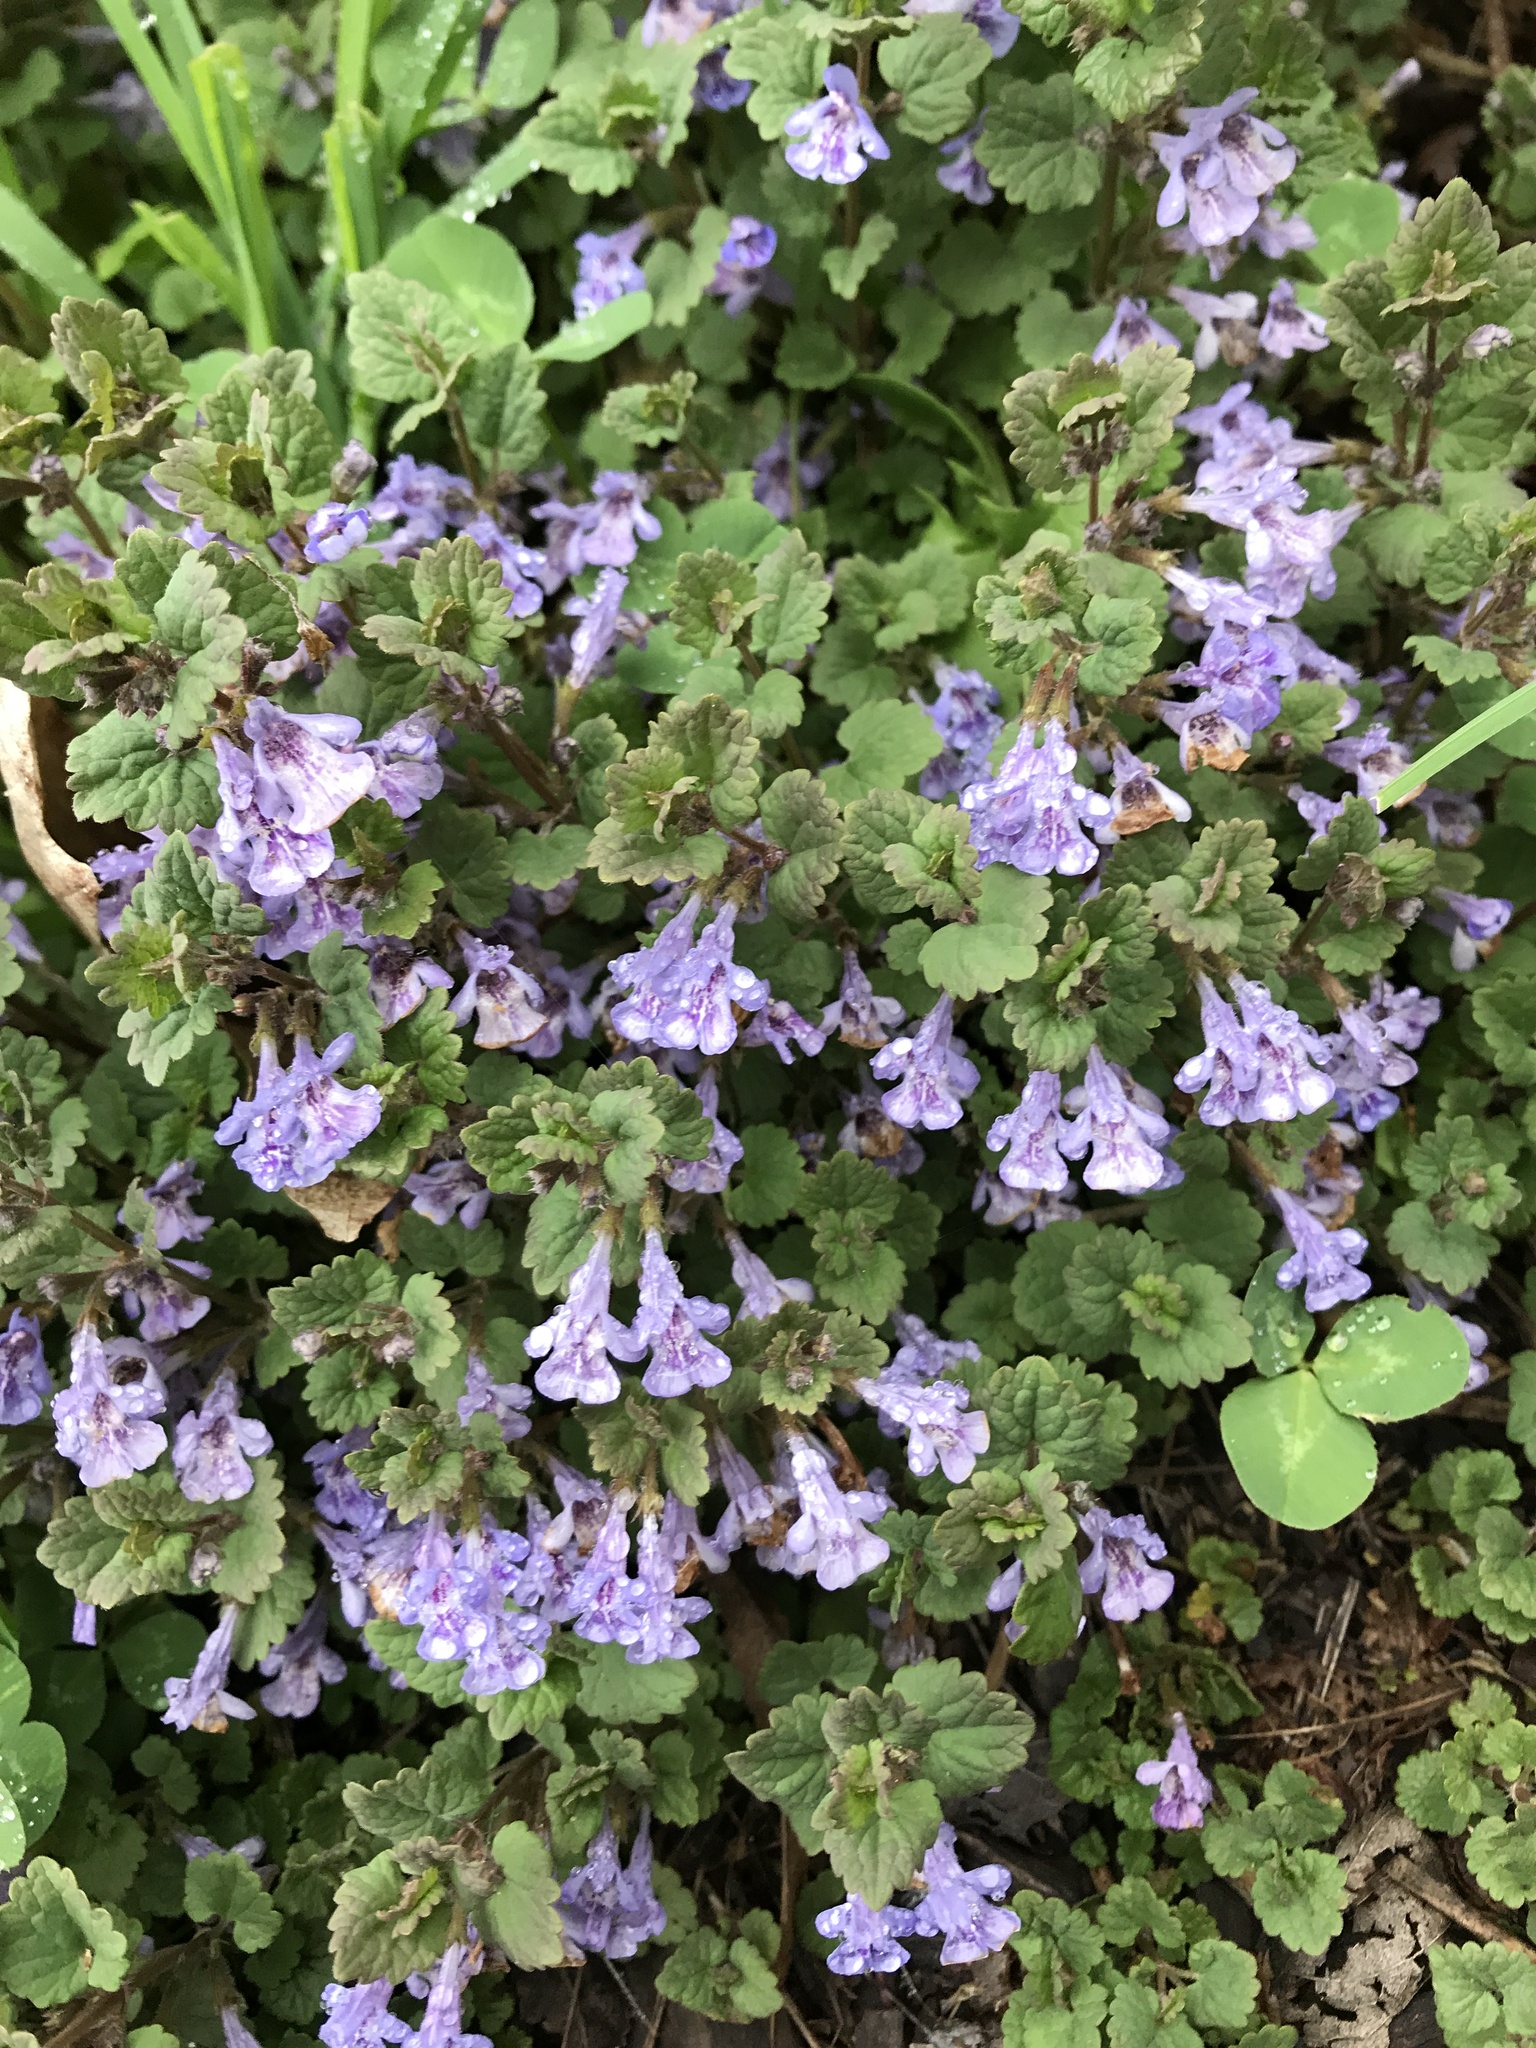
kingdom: Plantae
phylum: Tracheophyta
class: Magnoliopsida
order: Lamiales
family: Lamiaceae
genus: Glechoma
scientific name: Glechoma hederacea
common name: Ground ivy
